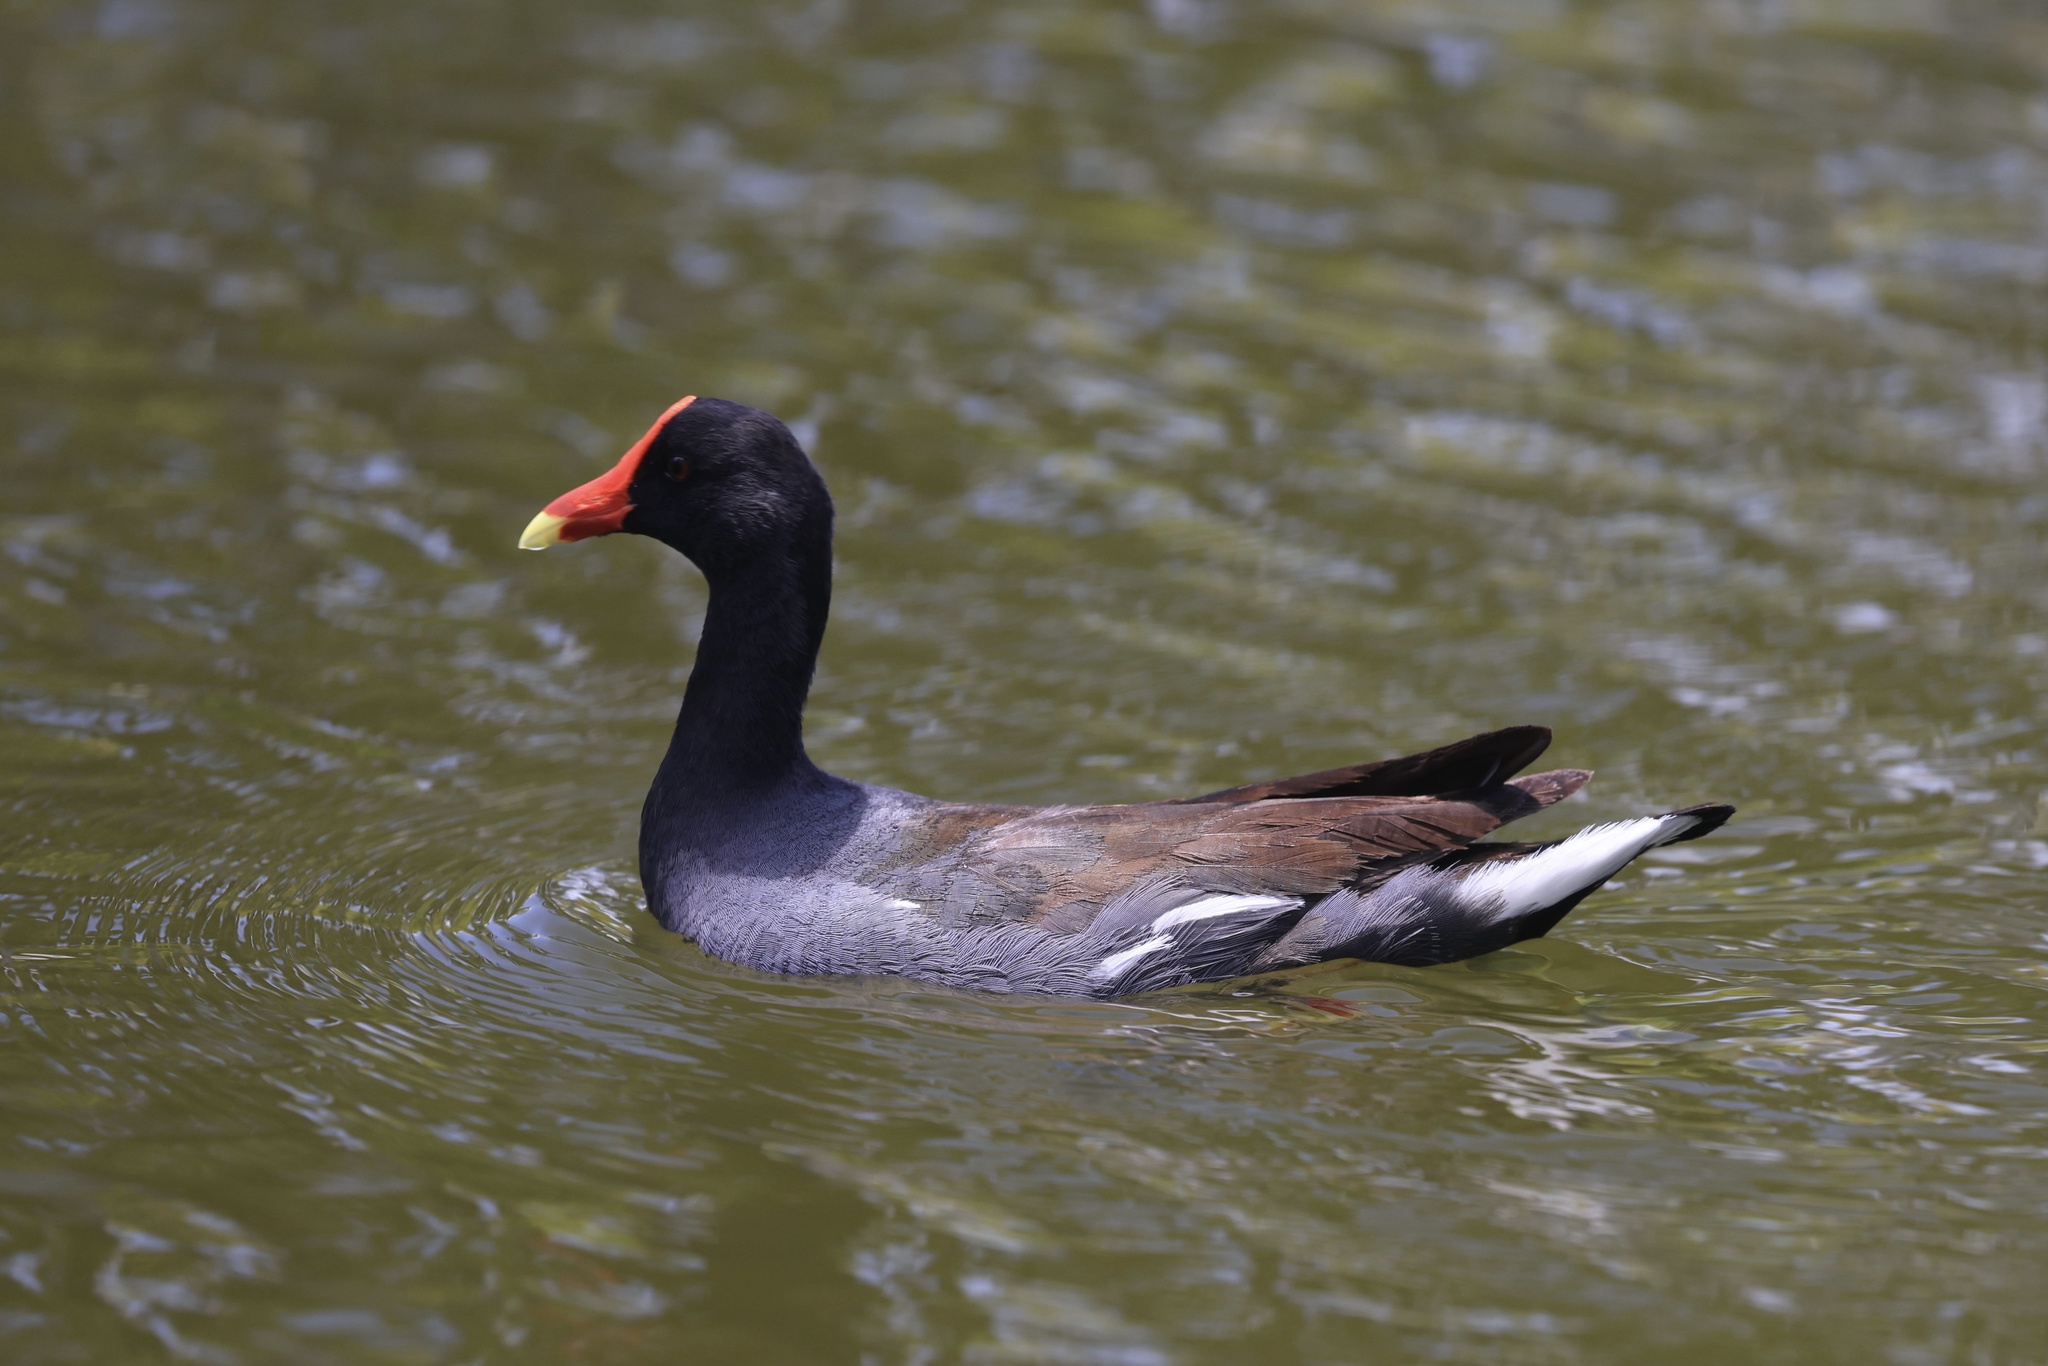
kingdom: Animalia
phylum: Chordata
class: Aves
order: Gruiformes
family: Rallidae
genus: Gallinula
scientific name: Gallinula chloropus
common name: Common moorhen
